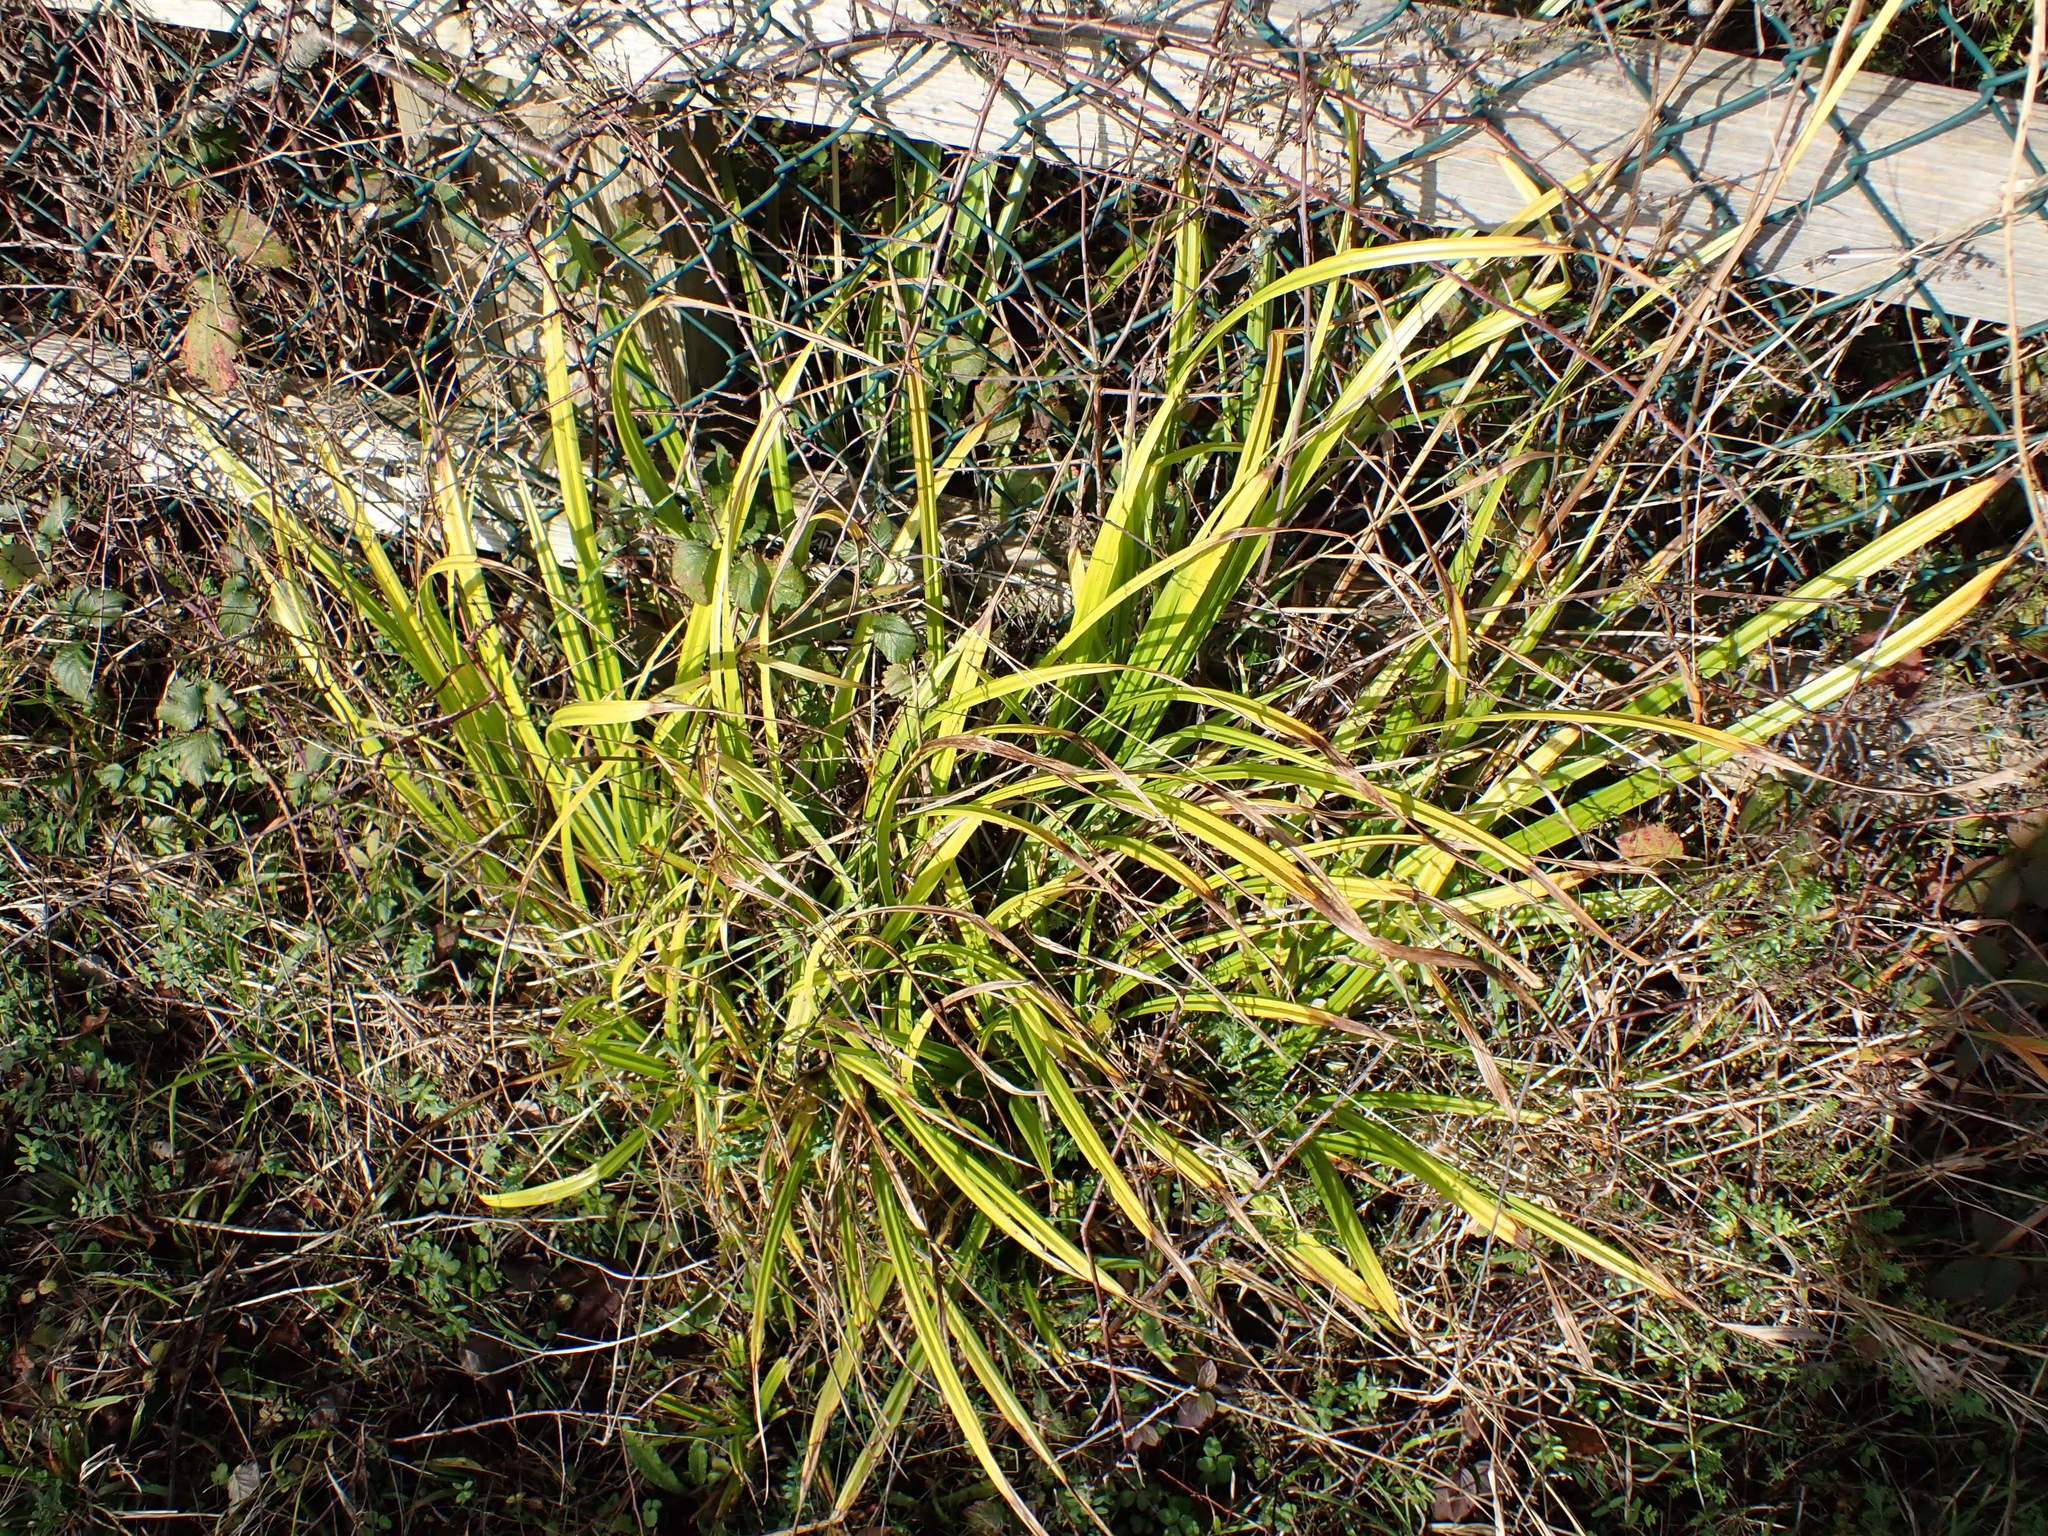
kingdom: Plantae
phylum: Tracheophyta
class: Liliopsida
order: Poales
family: Cyperaceae
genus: Carex
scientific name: Carex pendula
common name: Pendulous sedge
